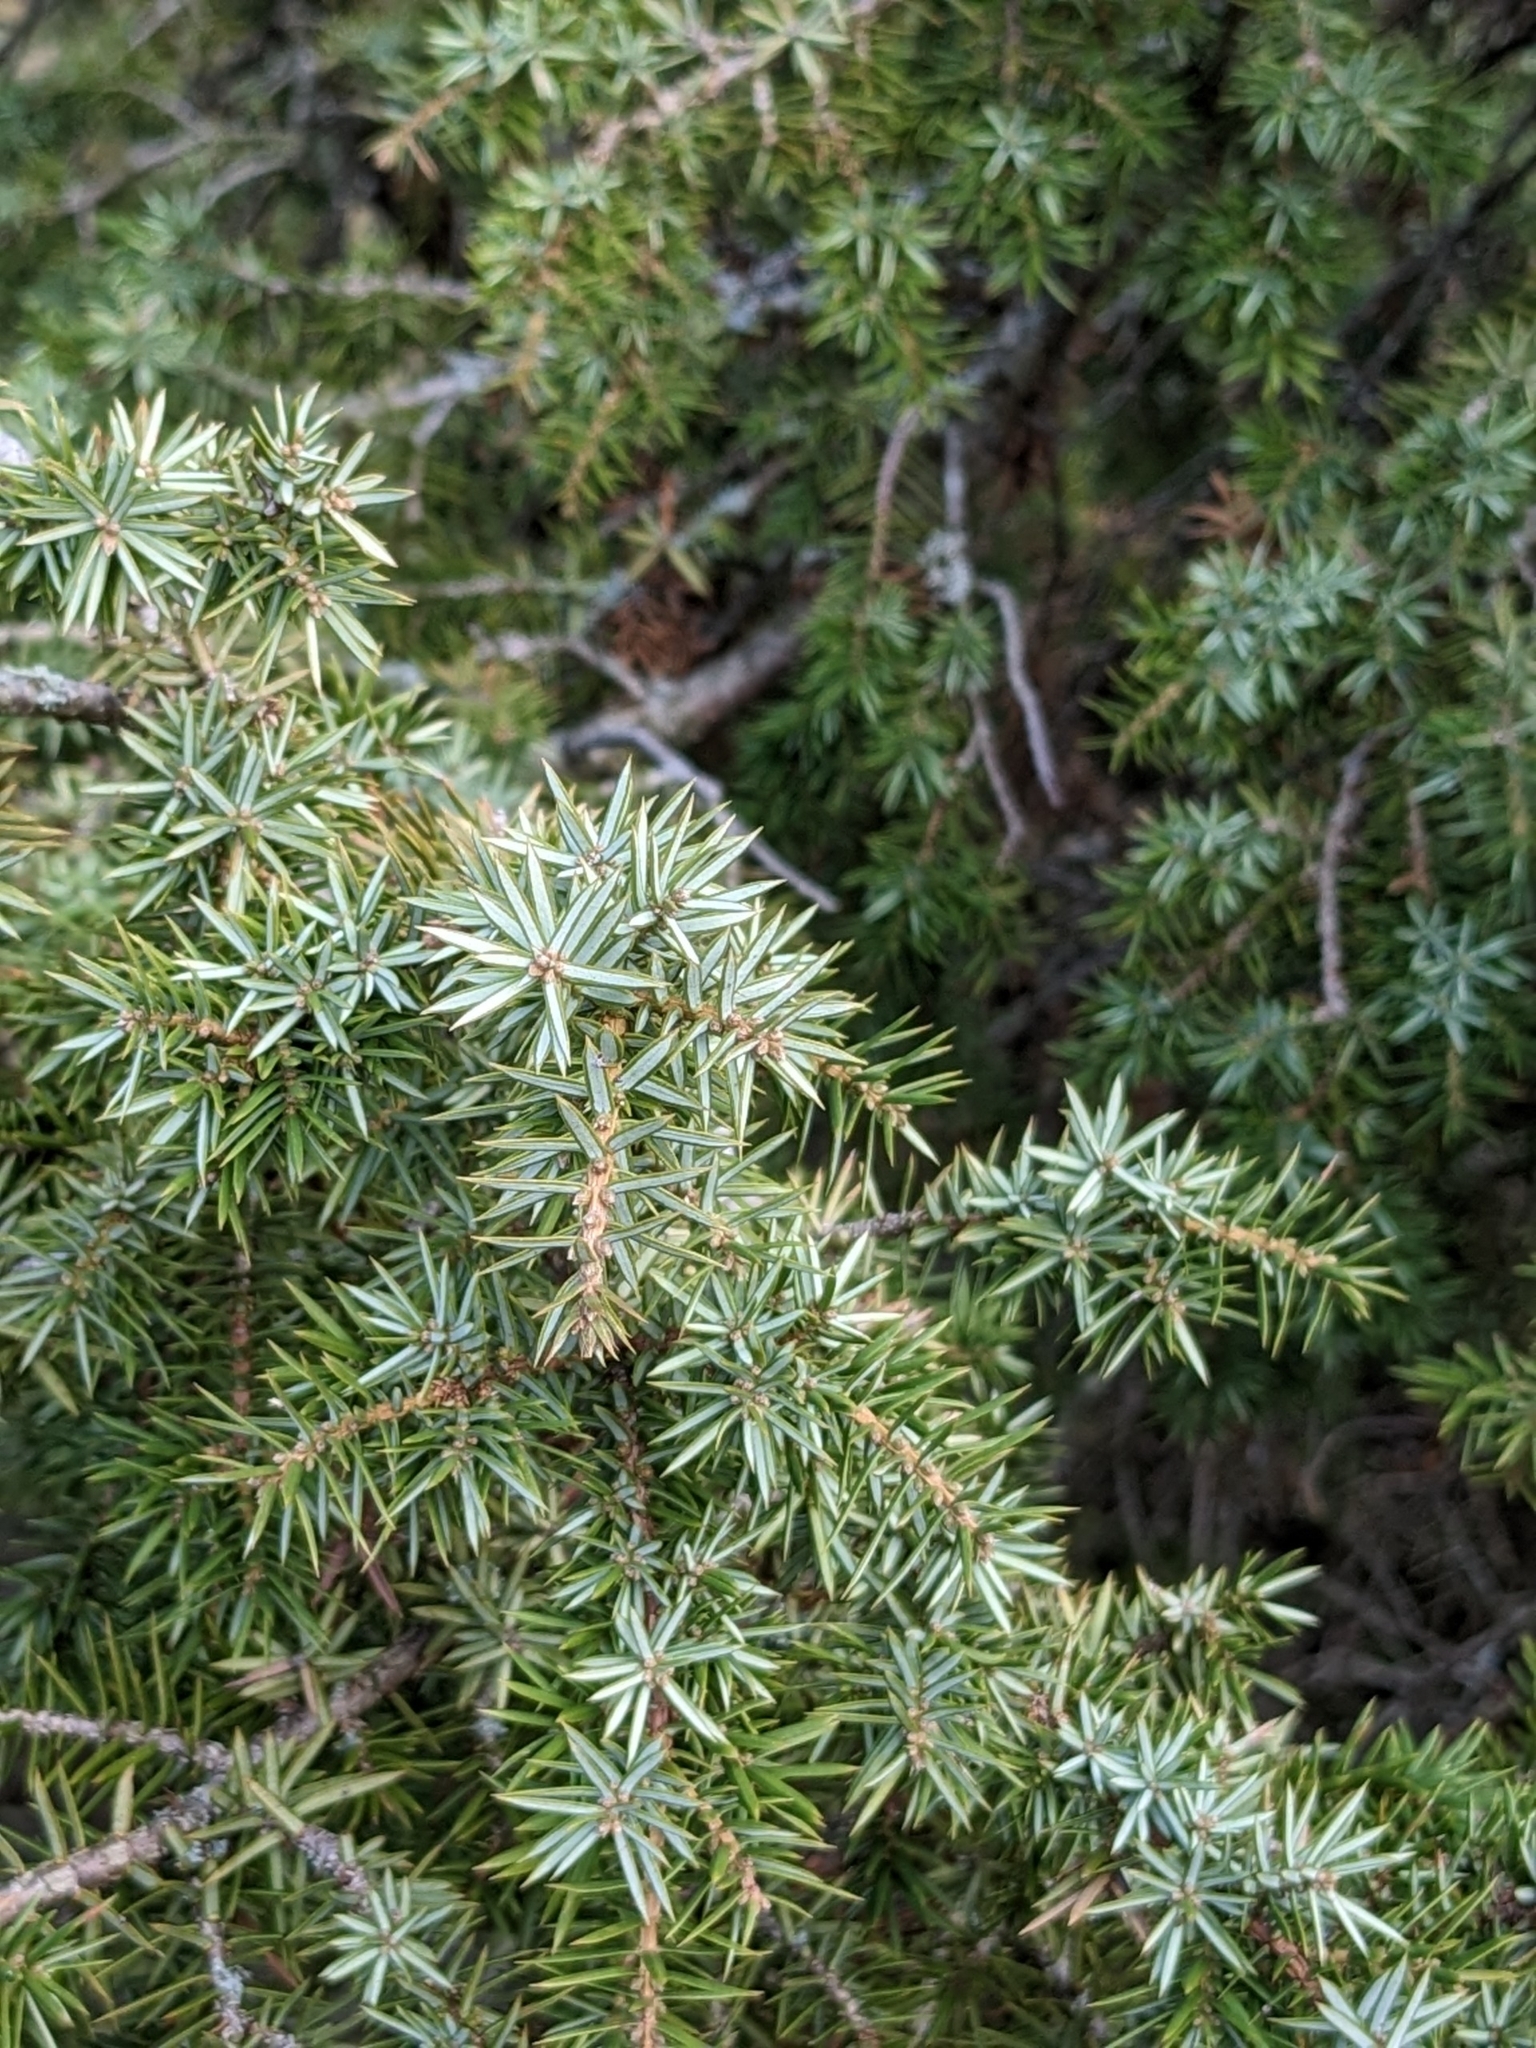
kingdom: Plantae
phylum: Tracheophyta
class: Pinopsida
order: Pinales
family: Cupressaceae
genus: Juniperus
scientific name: Juniperus communis
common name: Common juniper
